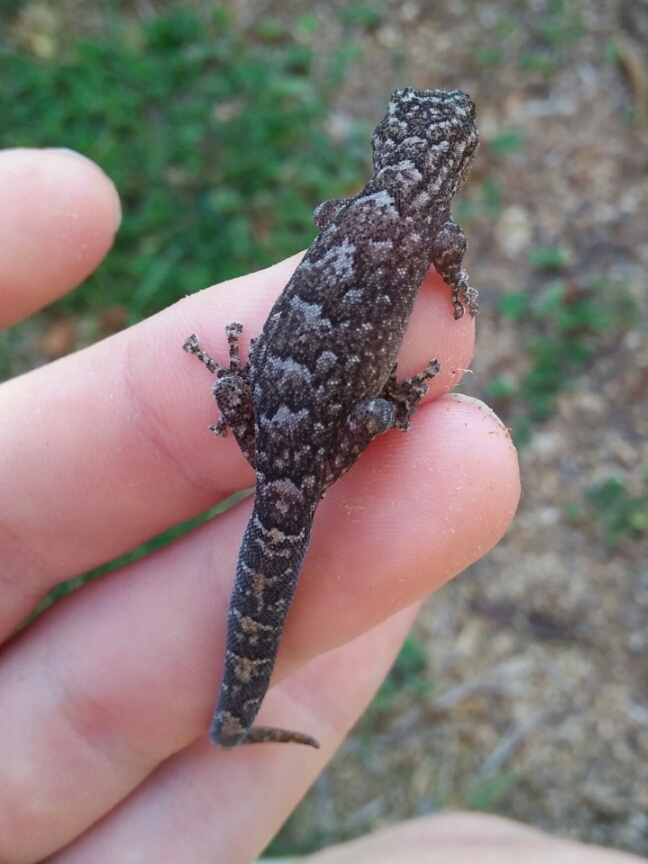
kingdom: Animalia
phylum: Chordata
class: Squamata
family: Gekkonidae
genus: Christinus
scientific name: Christinus marmoratus
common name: Marbled gecko
